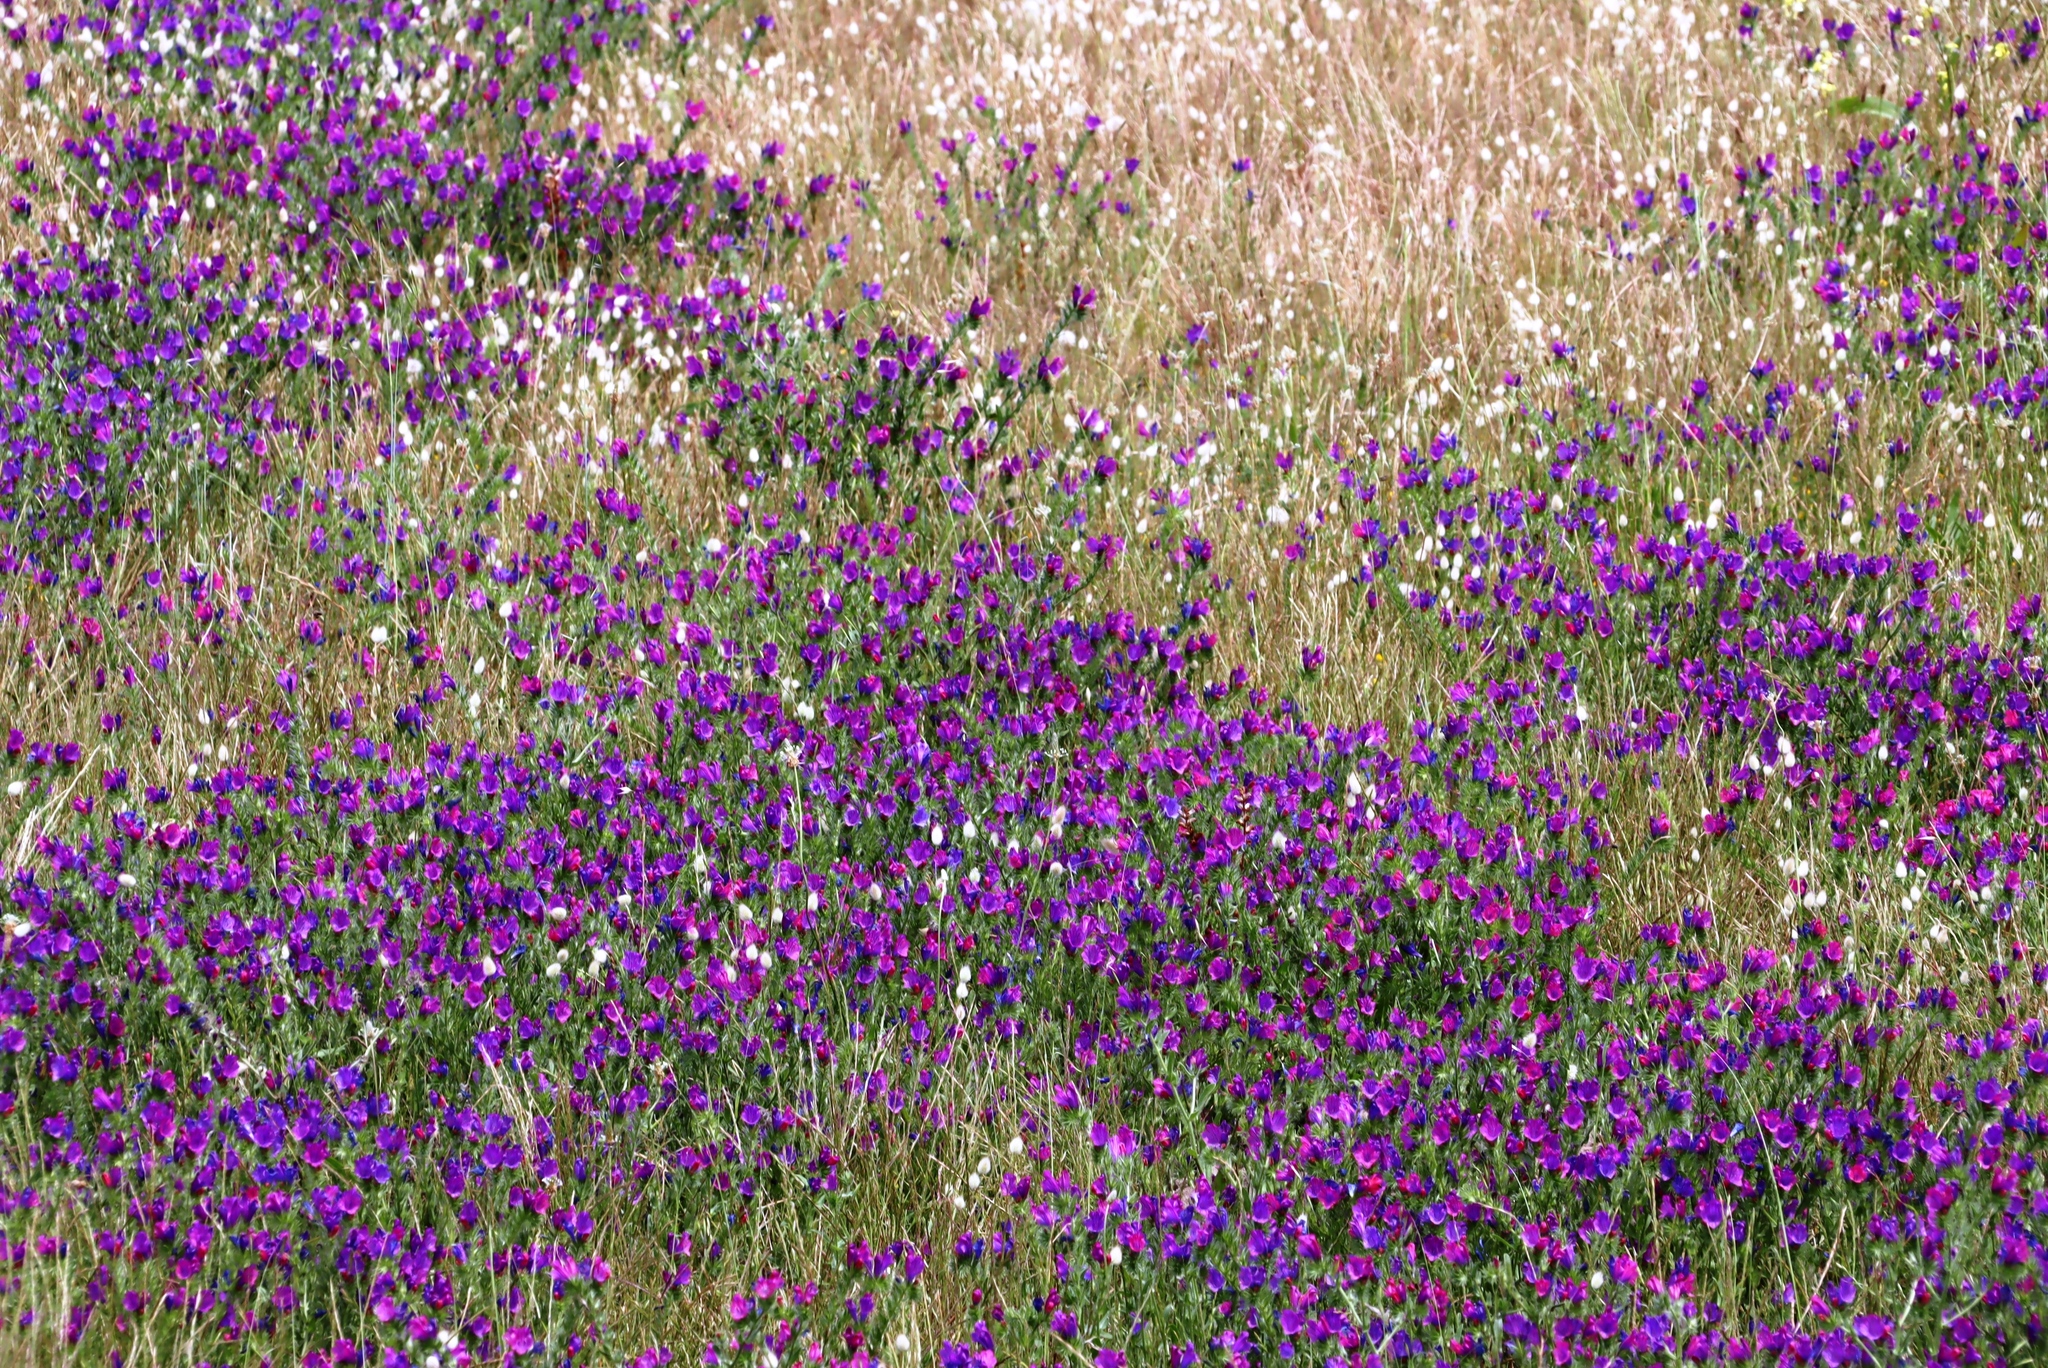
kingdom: Plantae
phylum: Tracheophyta
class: Magnoliopsida
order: Boraginales
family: Boraginaceae
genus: Echium
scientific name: Echium plantagineum
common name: Purple viper's-bugloss
